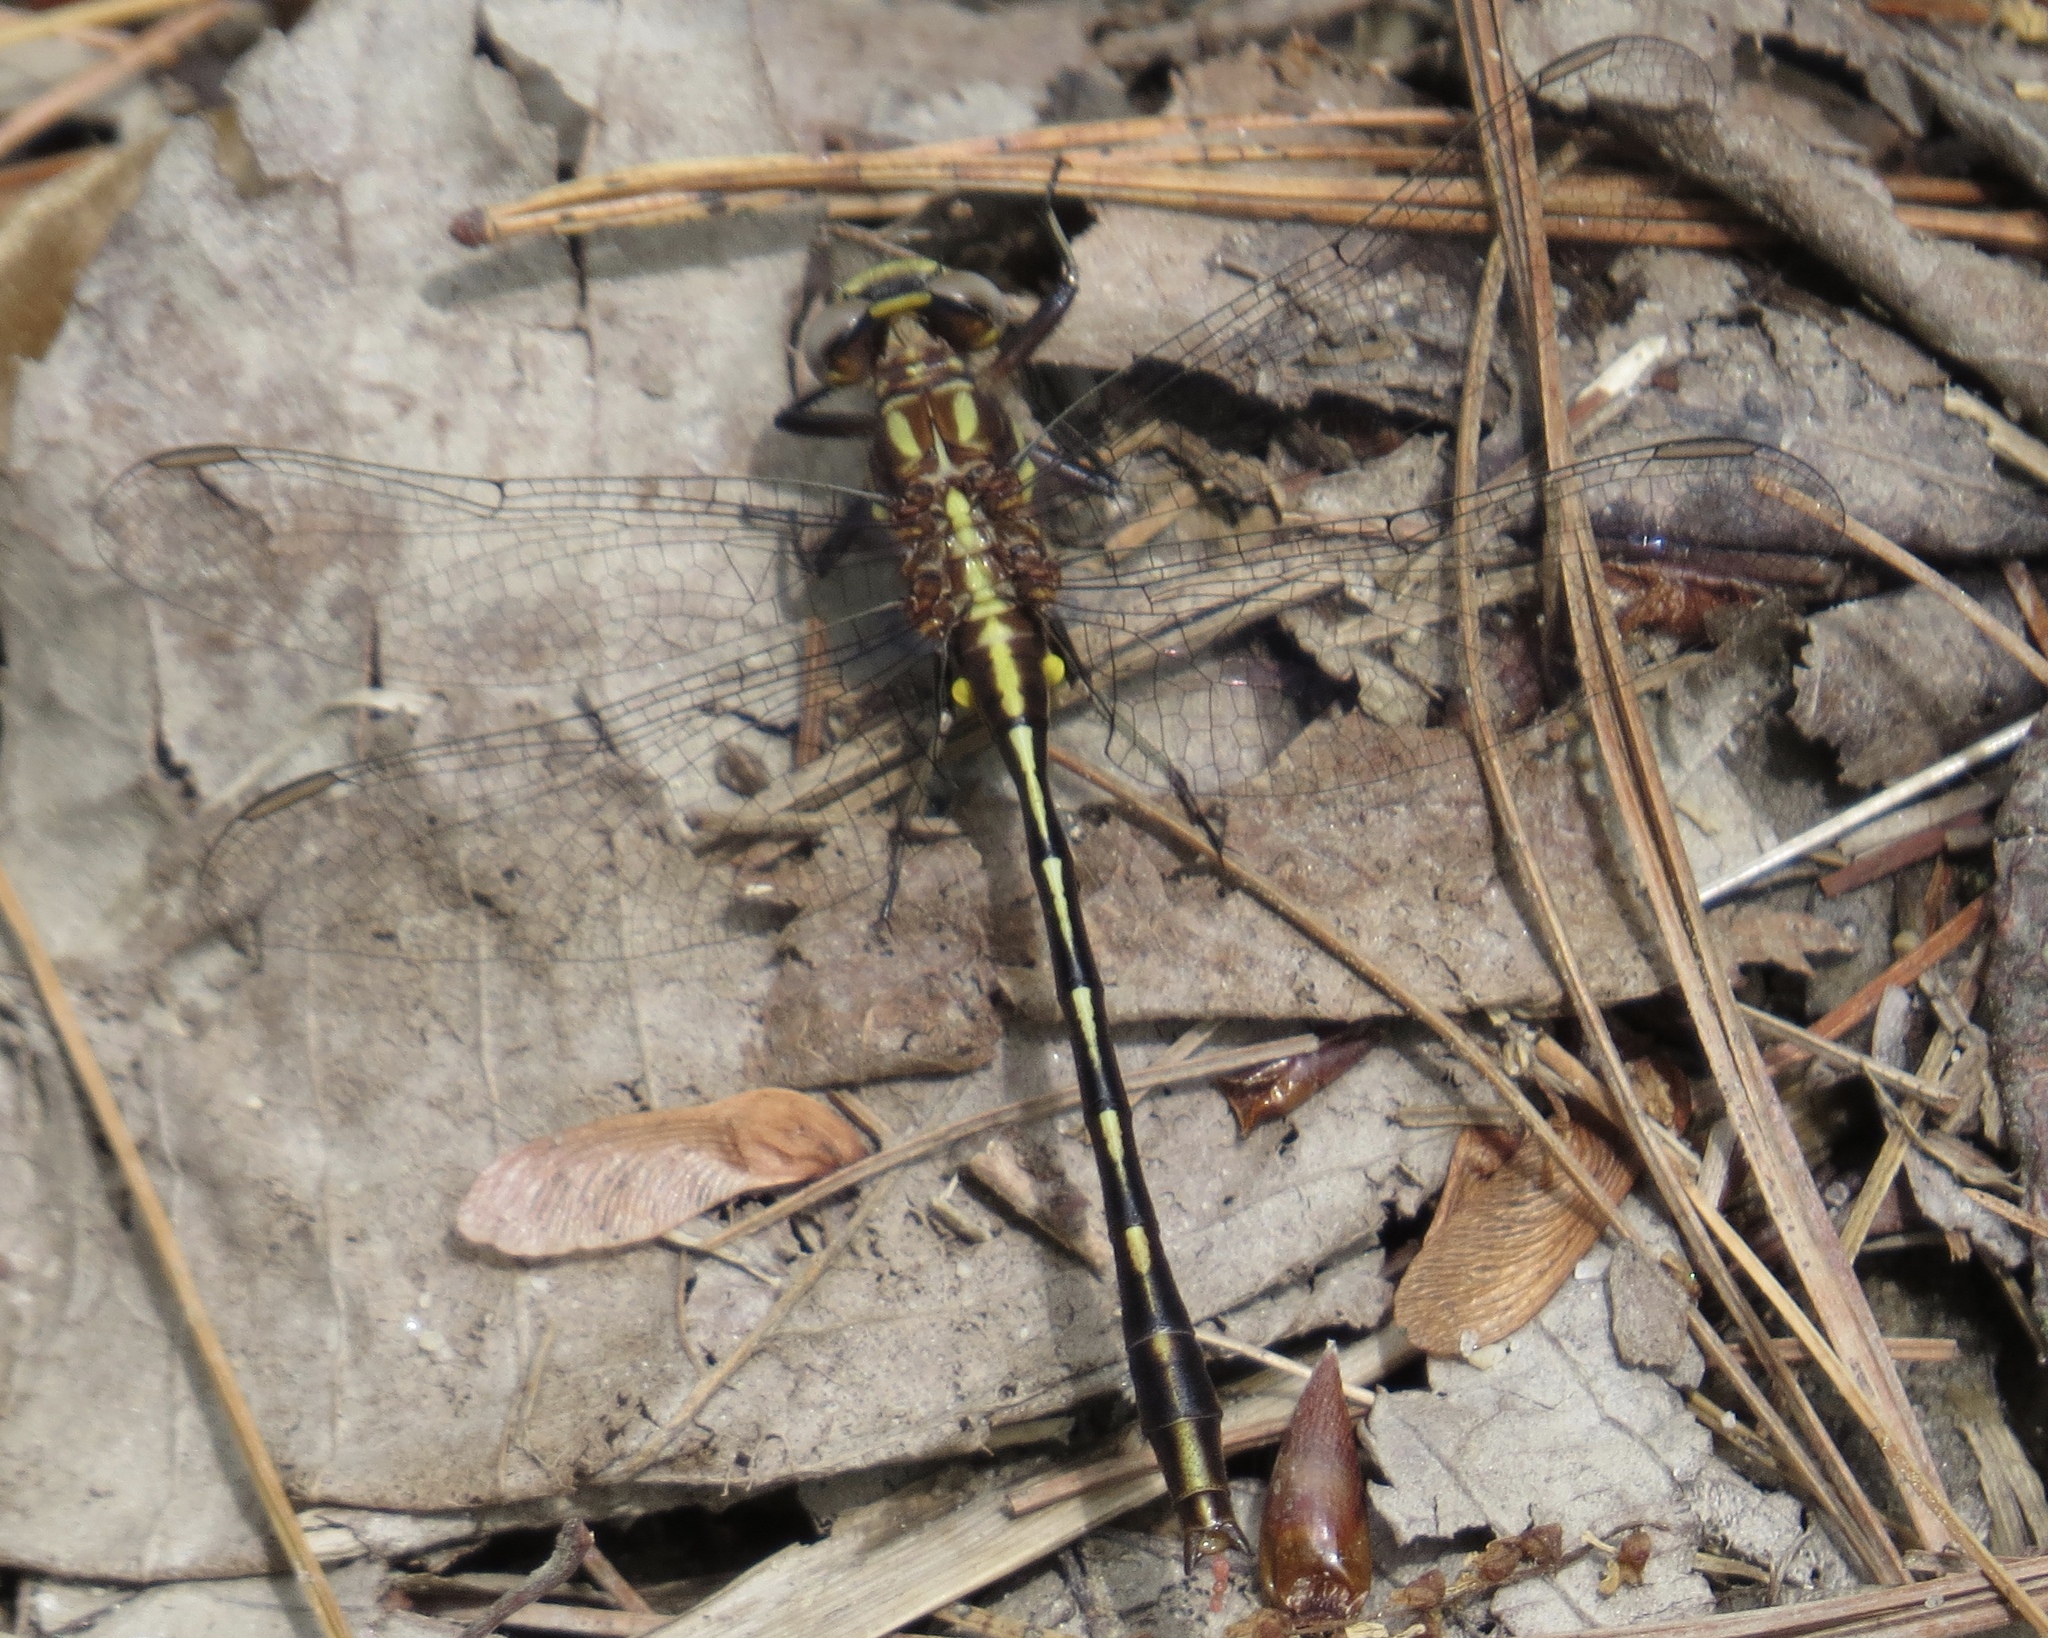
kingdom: Animalia
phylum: Arthropoda
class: Insecta
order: Odonata
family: Gomphidae
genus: Phanogomphus
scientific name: Phanogomphus exilis
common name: Lancet clubtail
